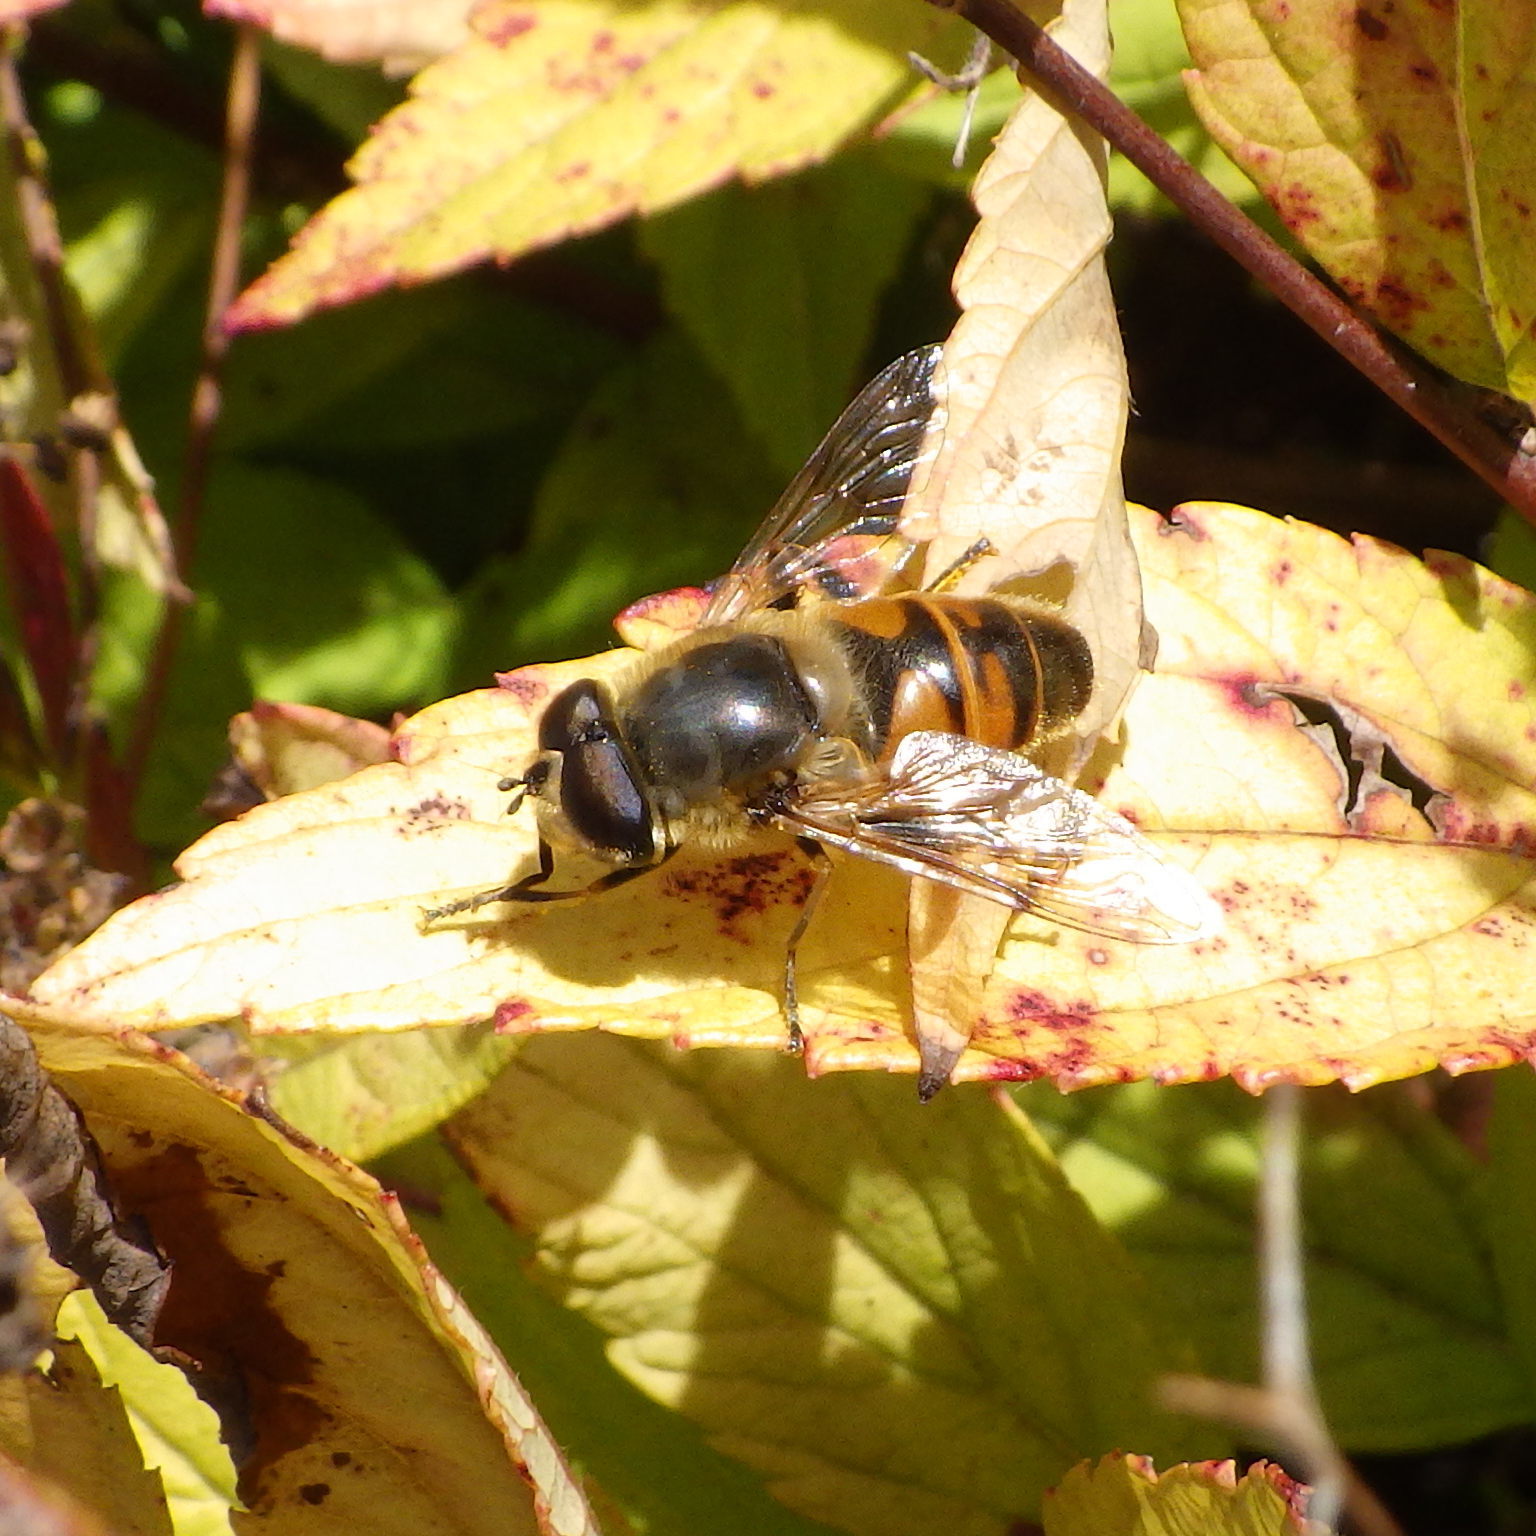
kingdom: Animalia
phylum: Arthropoda
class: Insecta
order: Diptera
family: Syrphidae
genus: Eristalis
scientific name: Eristalis tenax
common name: Drone fly
